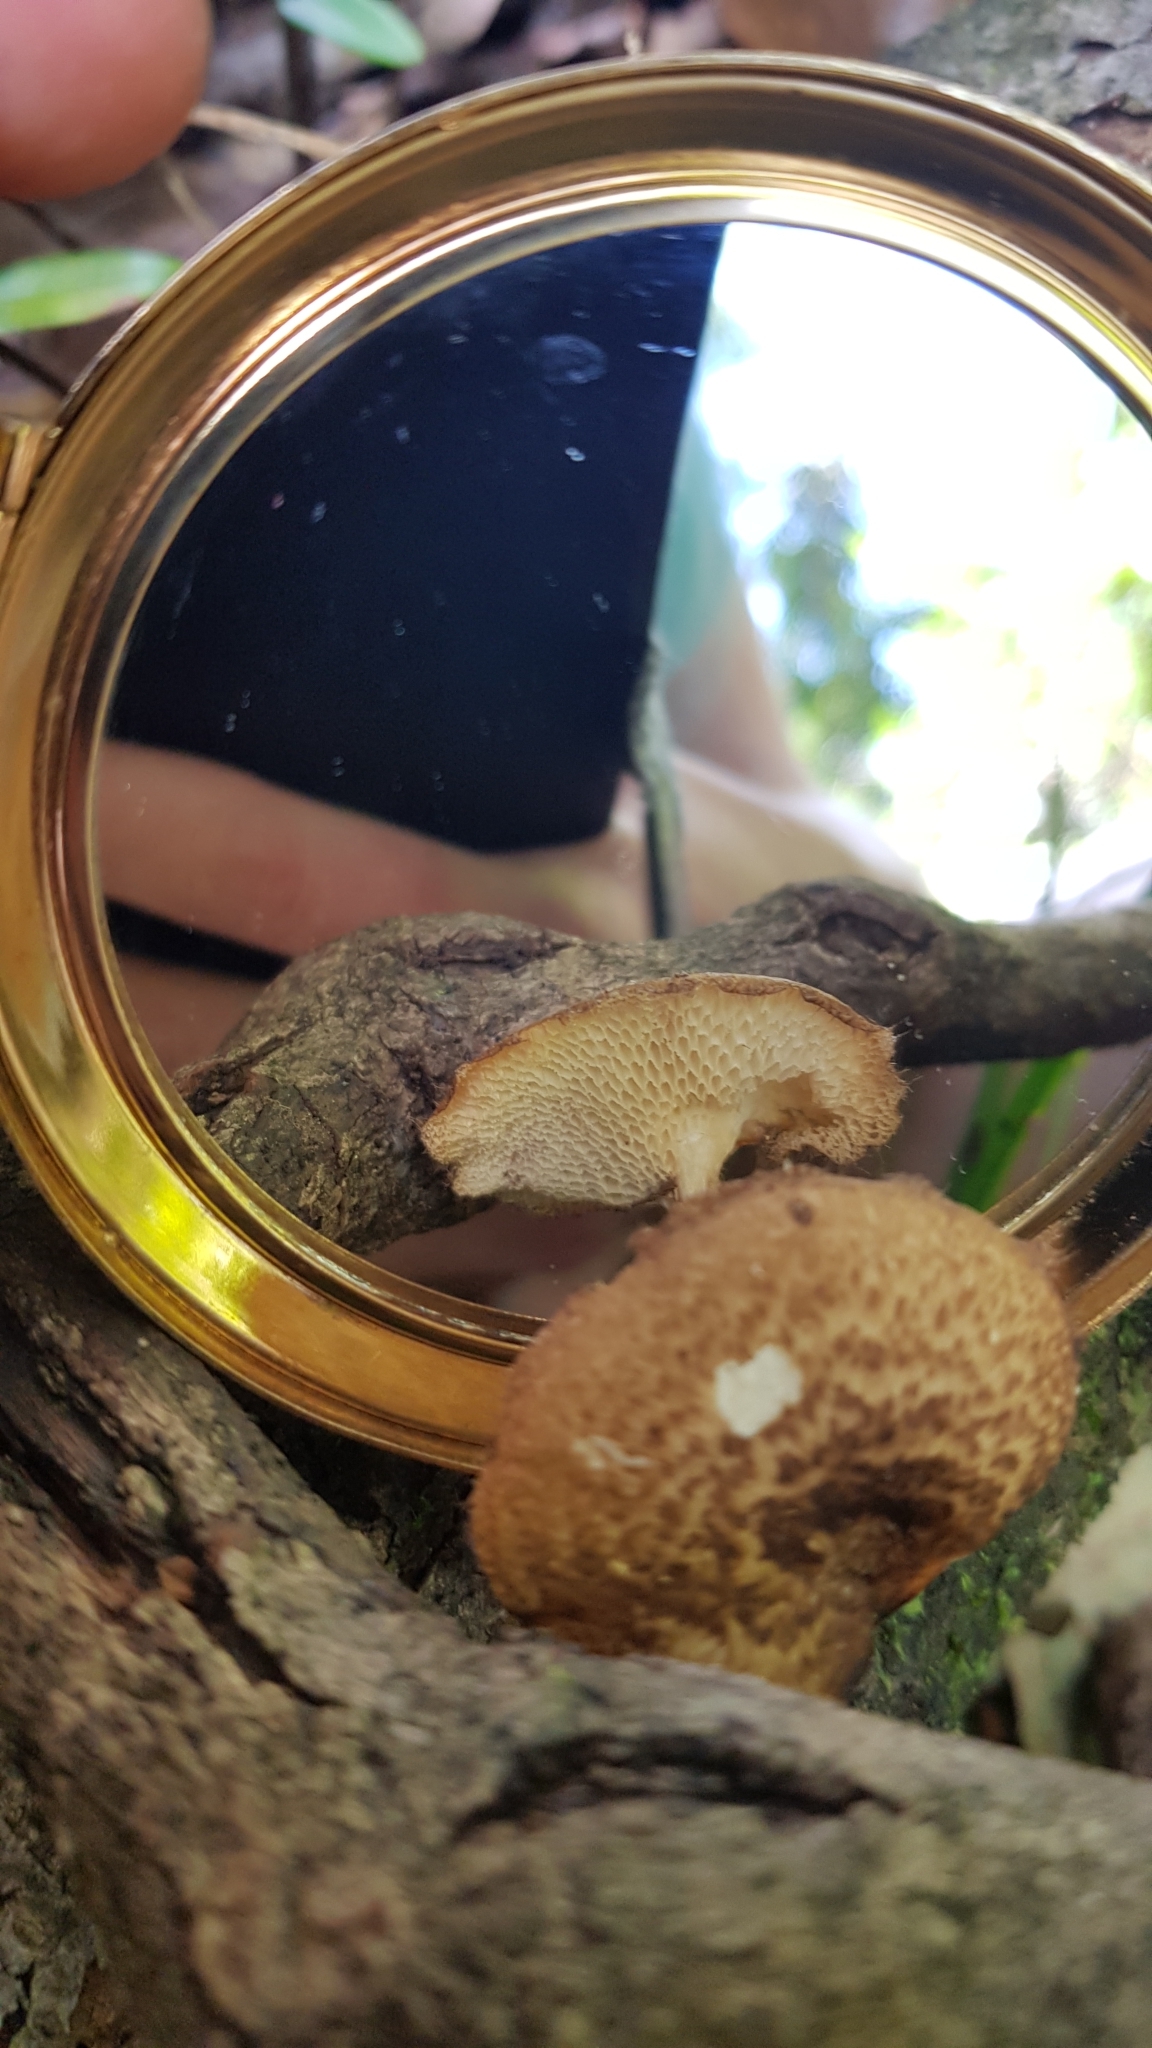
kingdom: Fungi
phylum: Basidiomycota
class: Agaricomycetes
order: Polyporales
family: Polyporaceae
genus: Lentinus
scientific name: Lentinus arcularius
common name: Spring polypore
